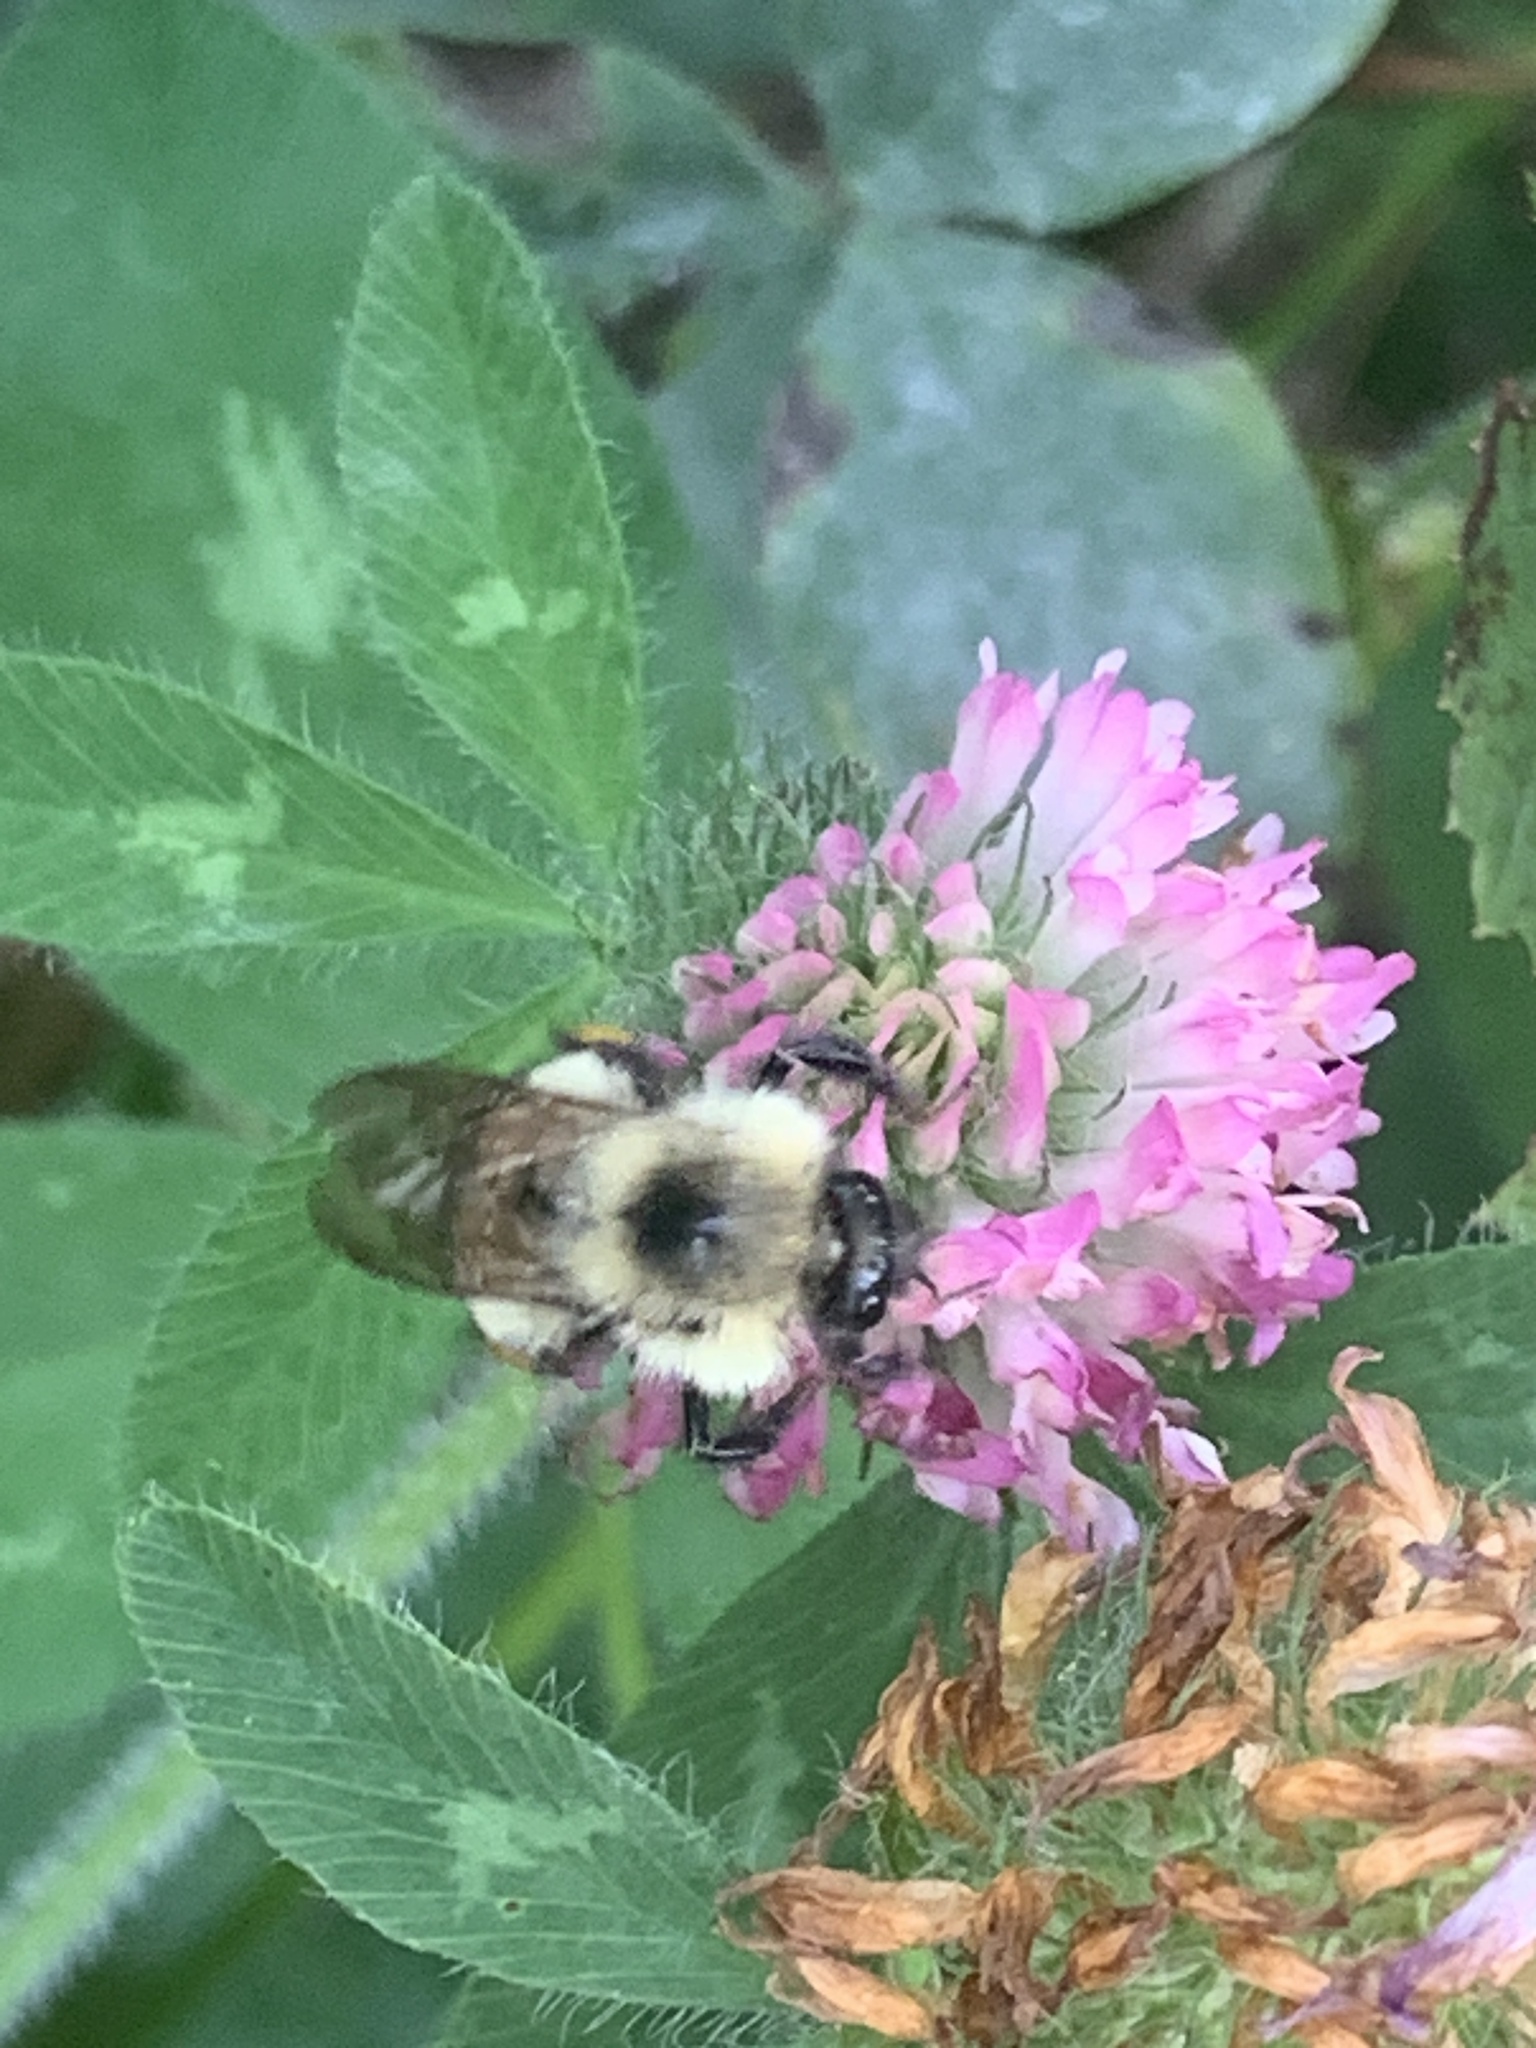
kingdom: Animalia
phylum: Arthropoda
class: Insecta
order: Hymenoptera
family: Apidae
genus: Pyrobombus
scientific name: Pyrobombus
